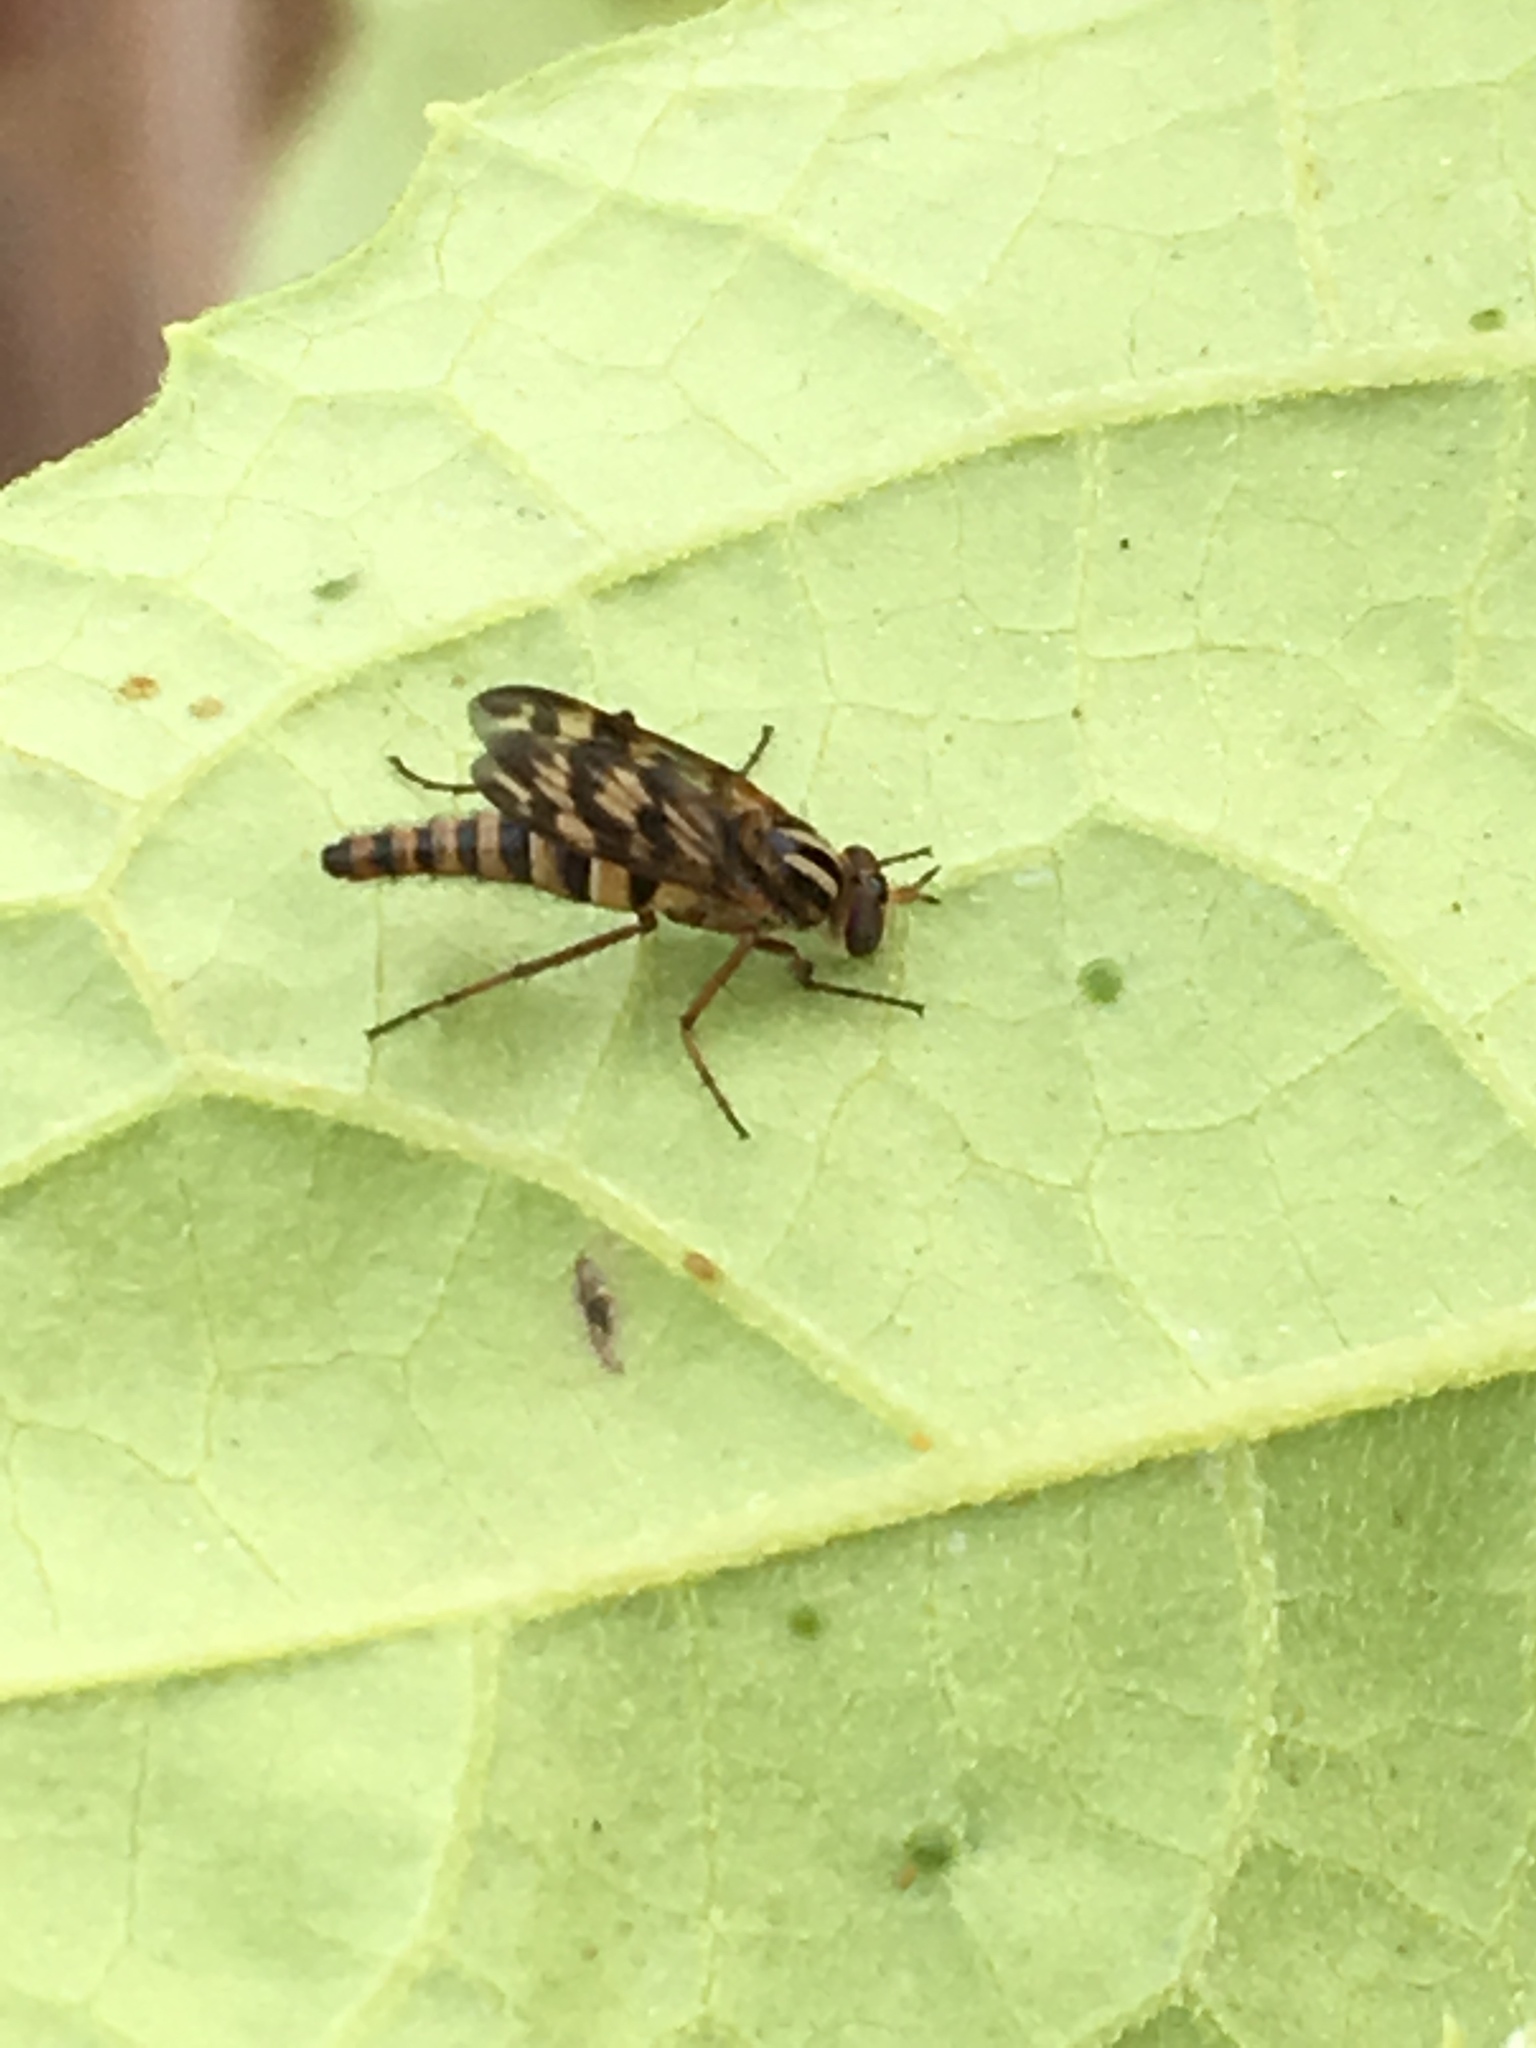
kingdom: Animalia
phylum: Arthropoda
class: Insecta
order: Diptera
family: Therevidae
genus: Thereva
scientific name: Thereva fucata
